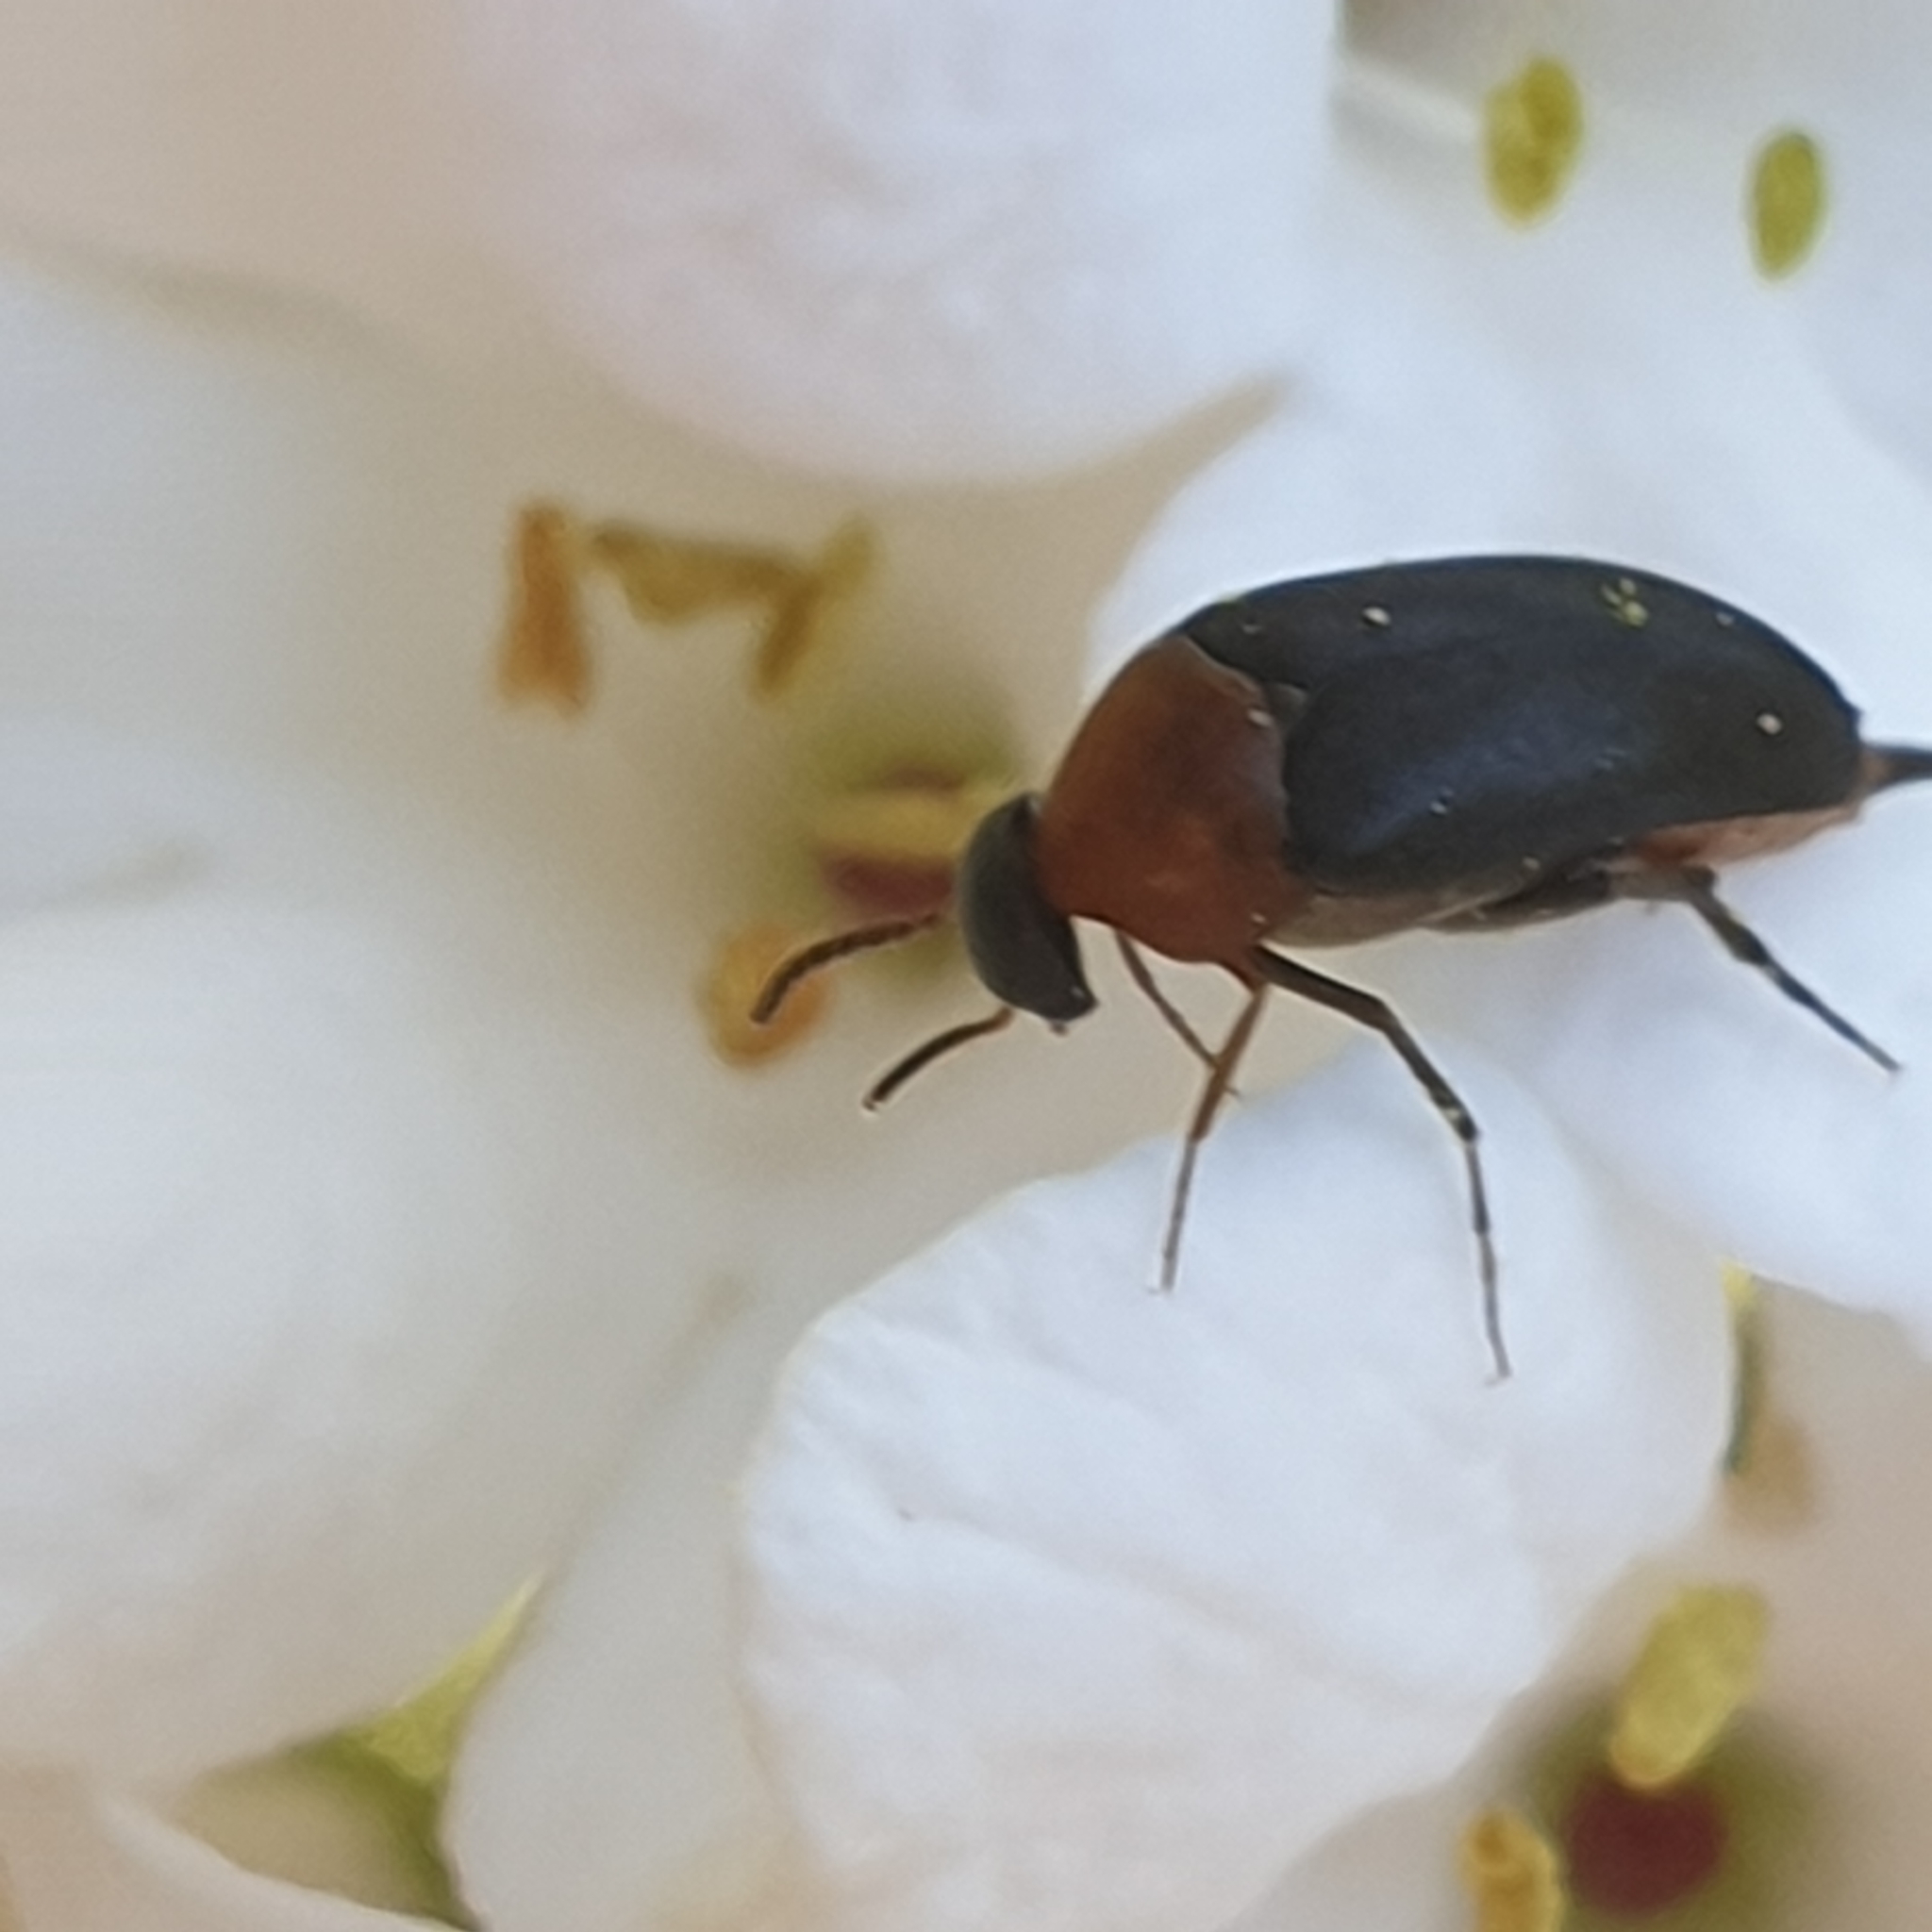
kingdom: Animalia
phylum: Arthropoda
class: Insecta
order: Coleoptera
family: Mordellidae
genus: Mordellochroa
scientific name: Mordellochroa abdominalis
